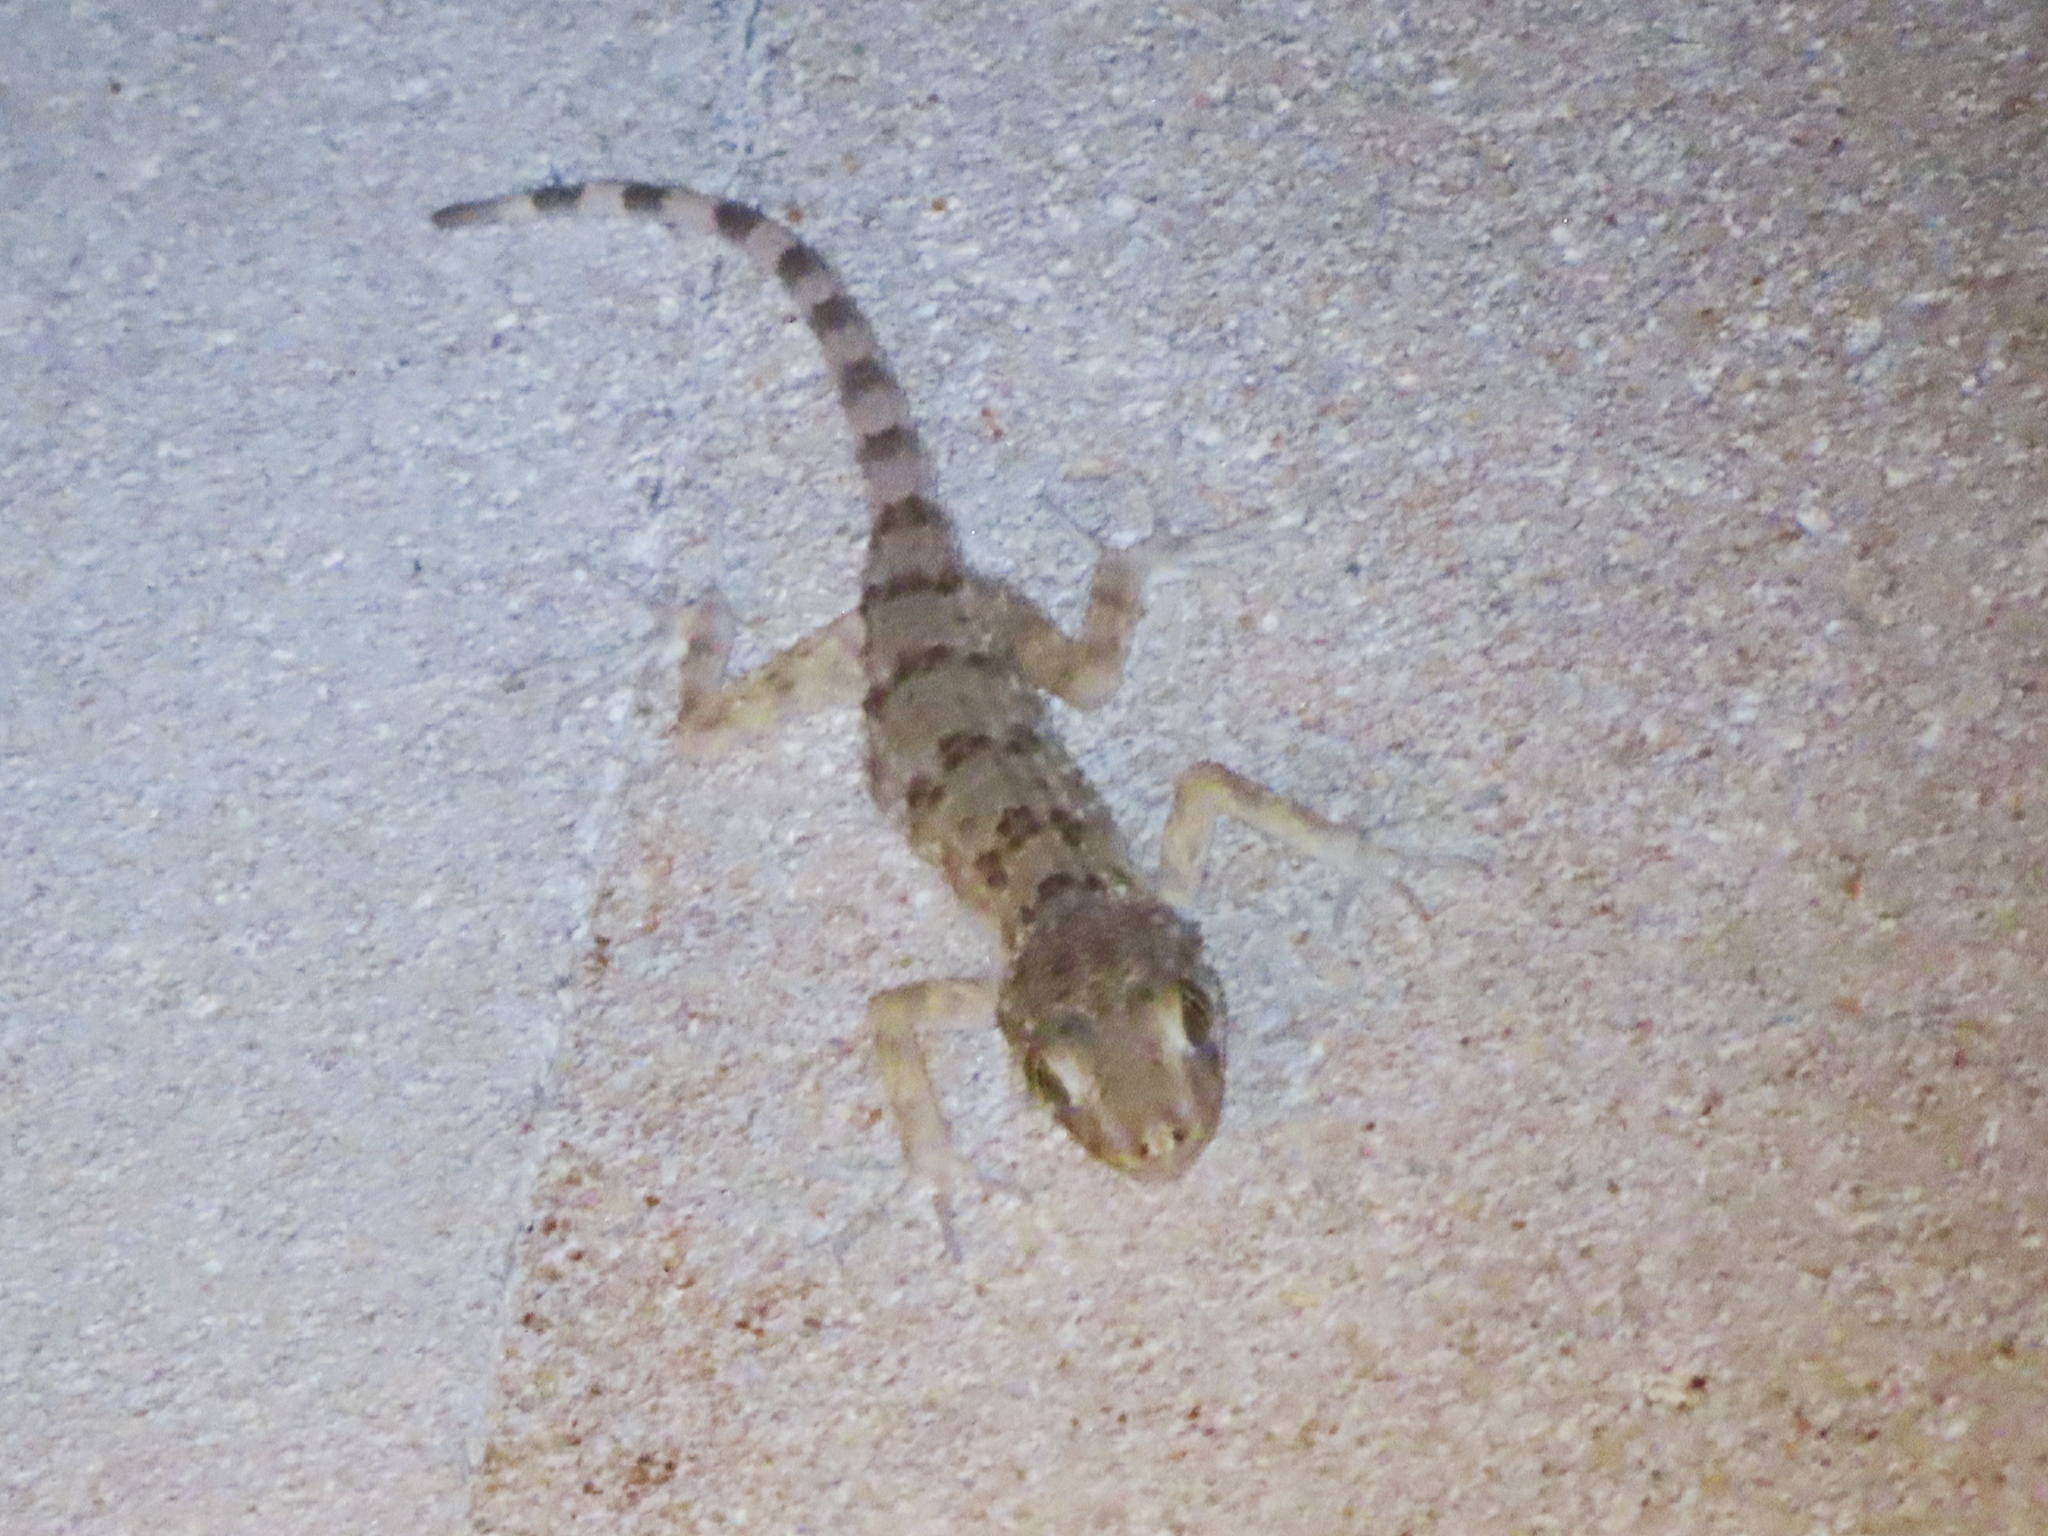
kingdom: Animalia
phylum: Chordata
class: Squamata
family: Gekkonidae
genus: Tenuidactylus
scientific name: Tenuidactylus caspius
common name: Caspian bent-toed gecko
